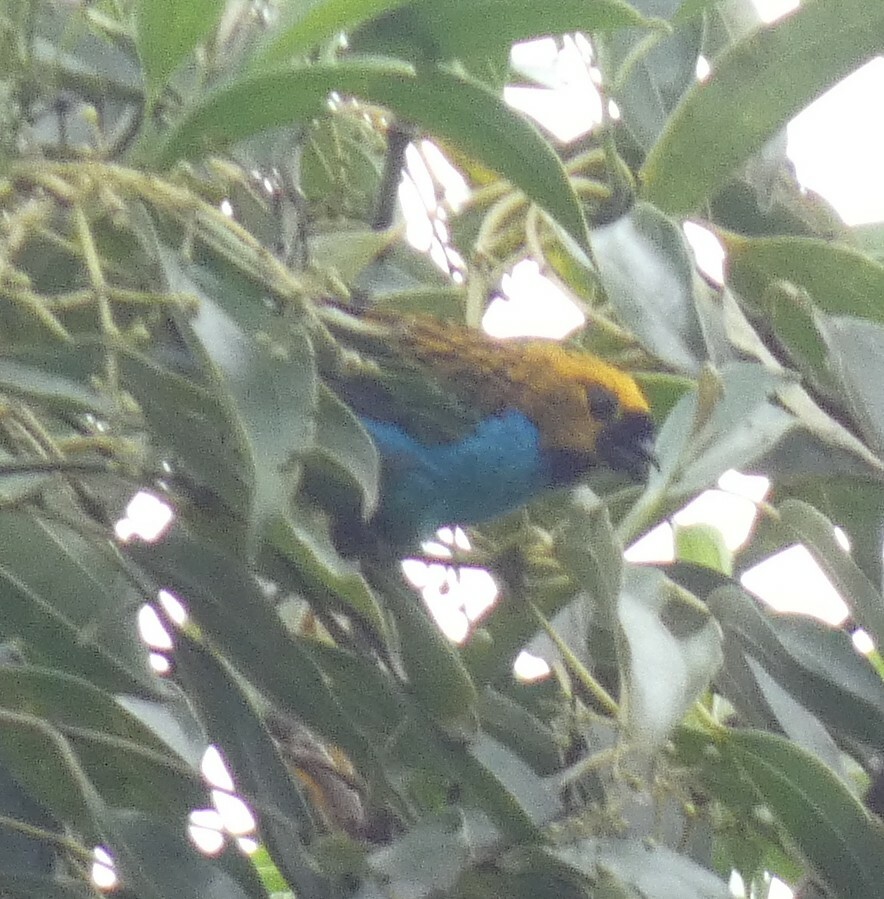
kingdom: Animalia
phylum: Chordata
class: Aves
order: Passeriformes
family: Thraupidae
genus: Tangara
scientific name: Tangara cyanoventris
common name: Gilt-edged tanager
